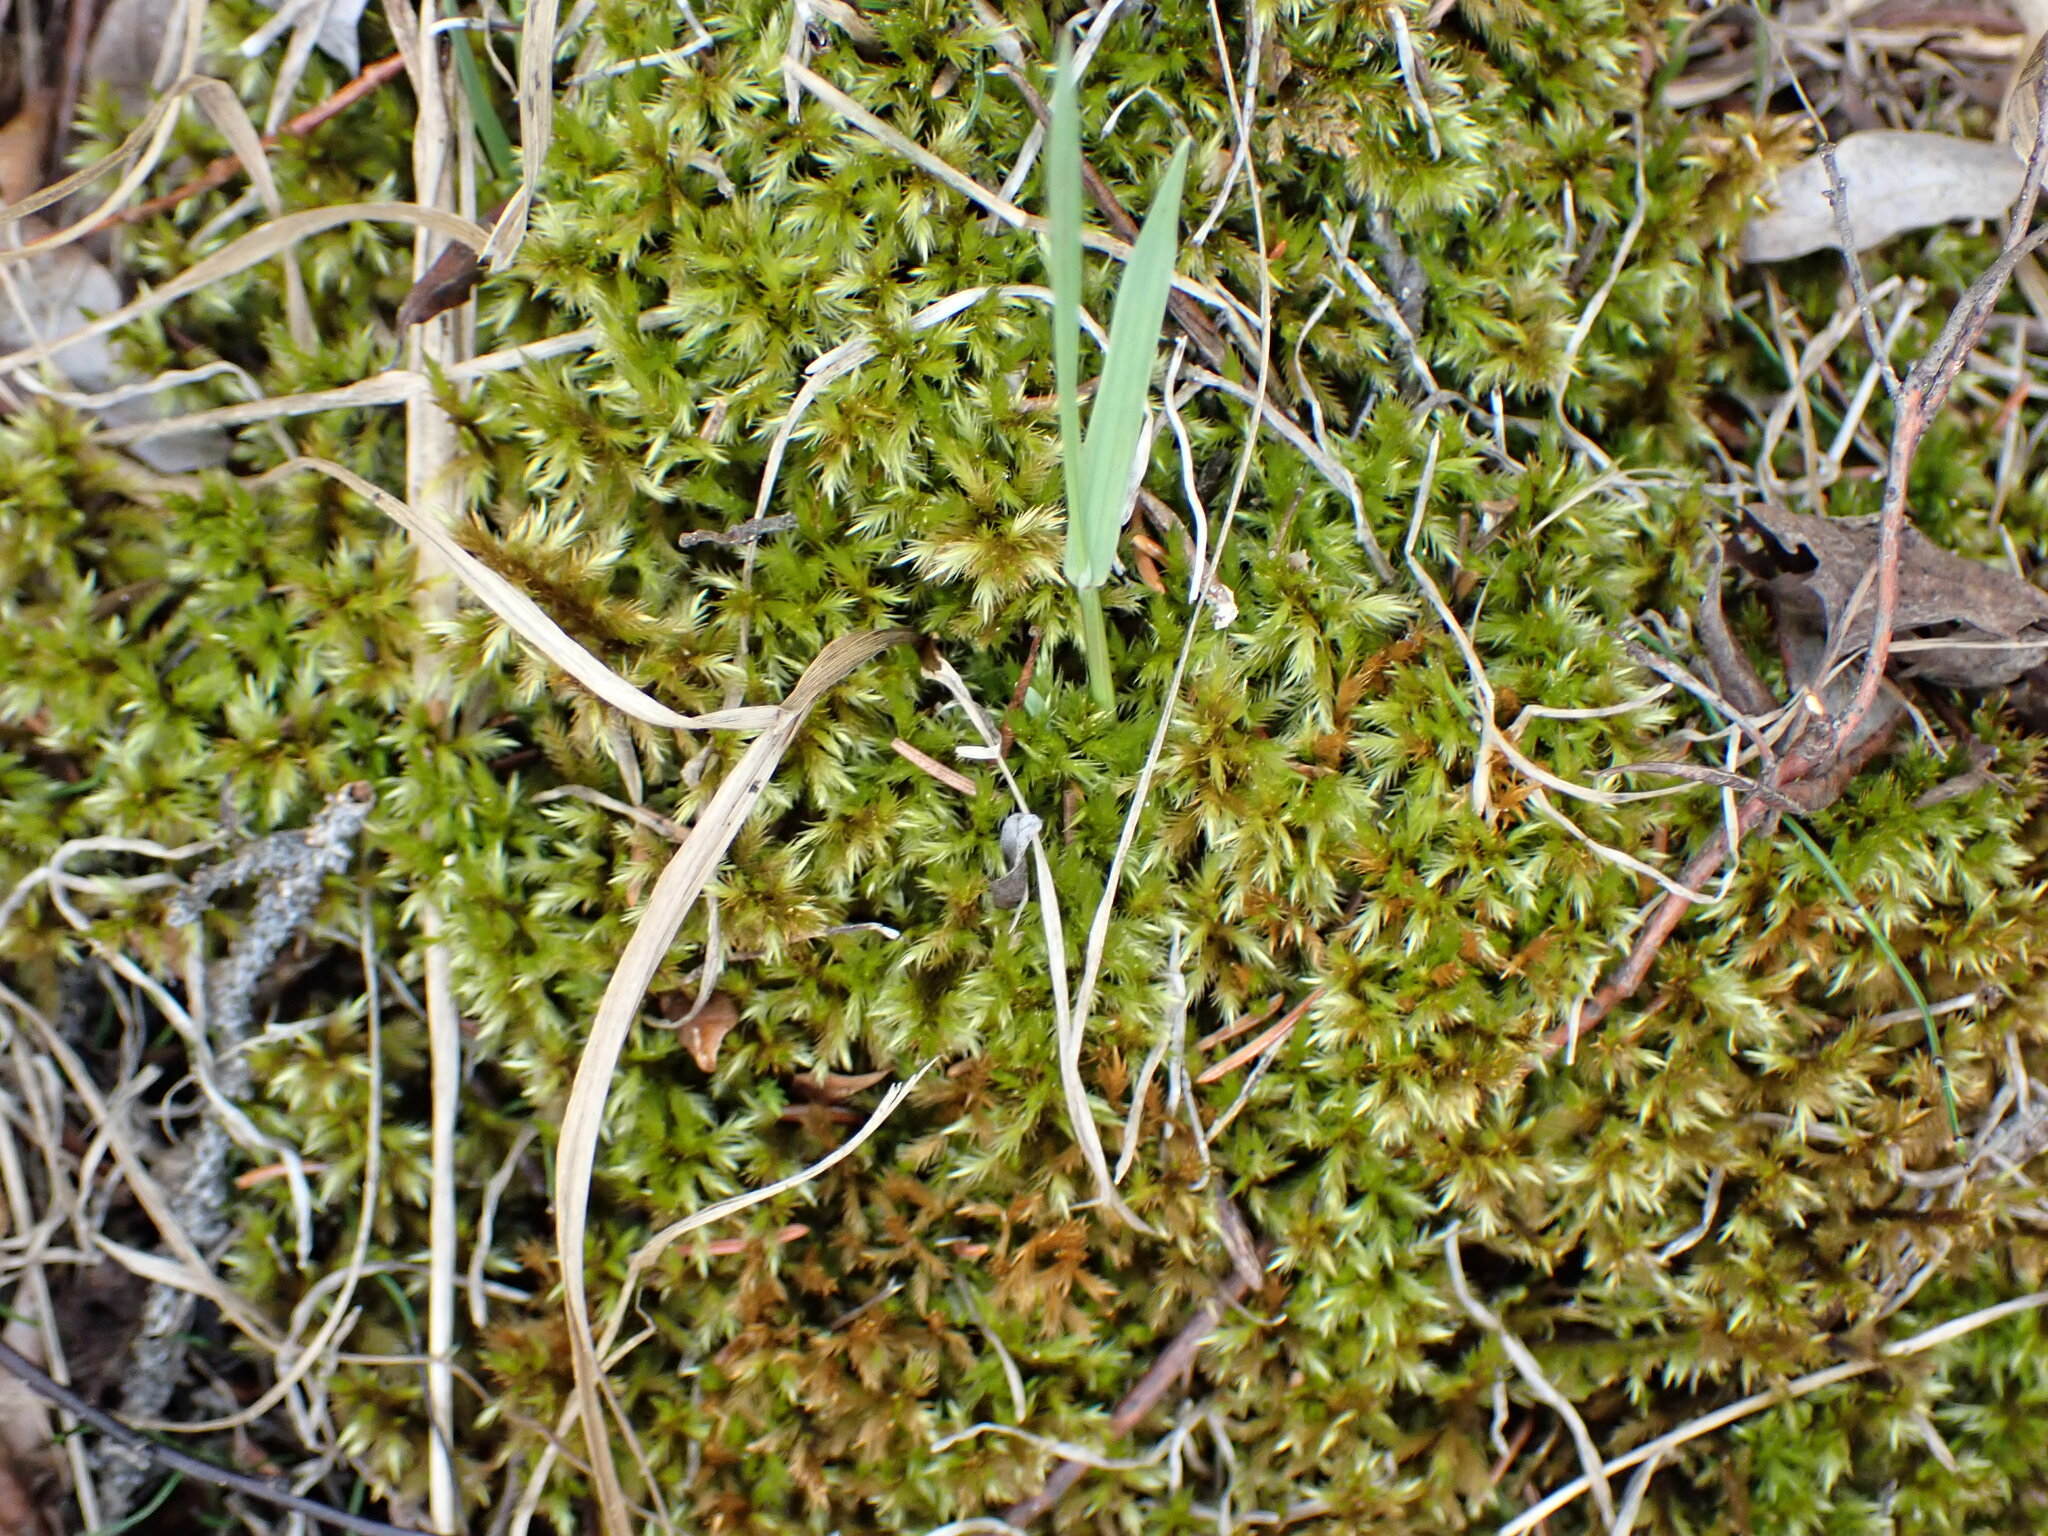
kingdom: Plantae
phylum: Bryophyta
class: Bryopsida
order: Hypnales
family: Amblystegiaceae
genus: Tomentypnum
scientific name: Tomentypnum nitens
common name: Golden fuzzy fen moss
